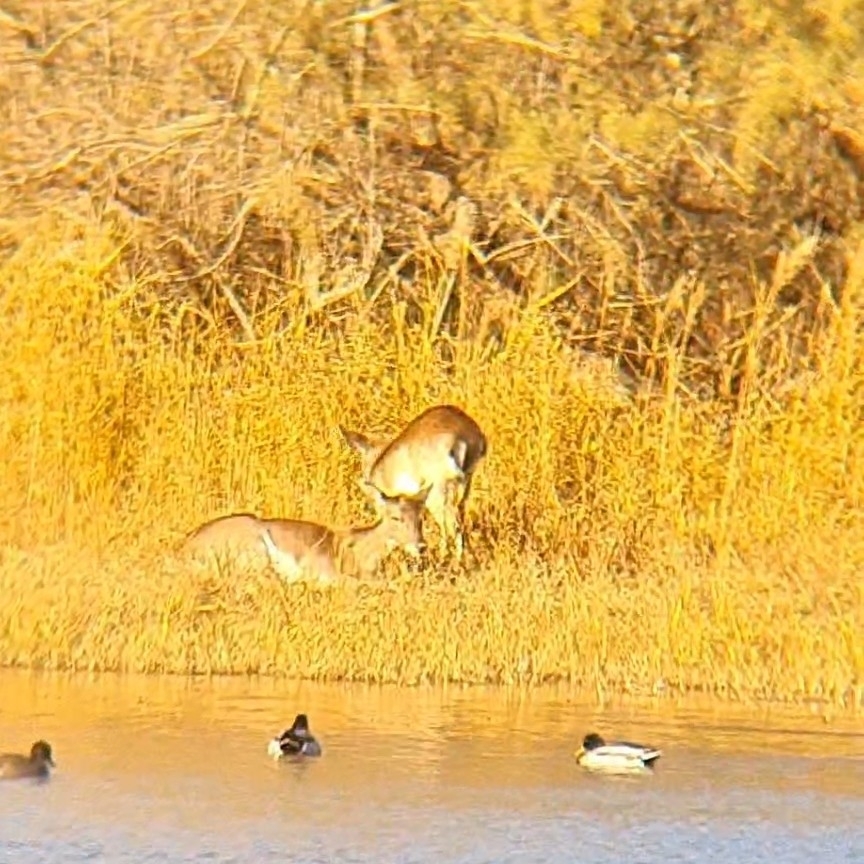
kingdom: Animalia
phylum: Chordata
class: Mammalia
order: Artiodactyla
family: Cervidae
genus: Dama
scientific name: Dama dama
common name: Fallow deer
